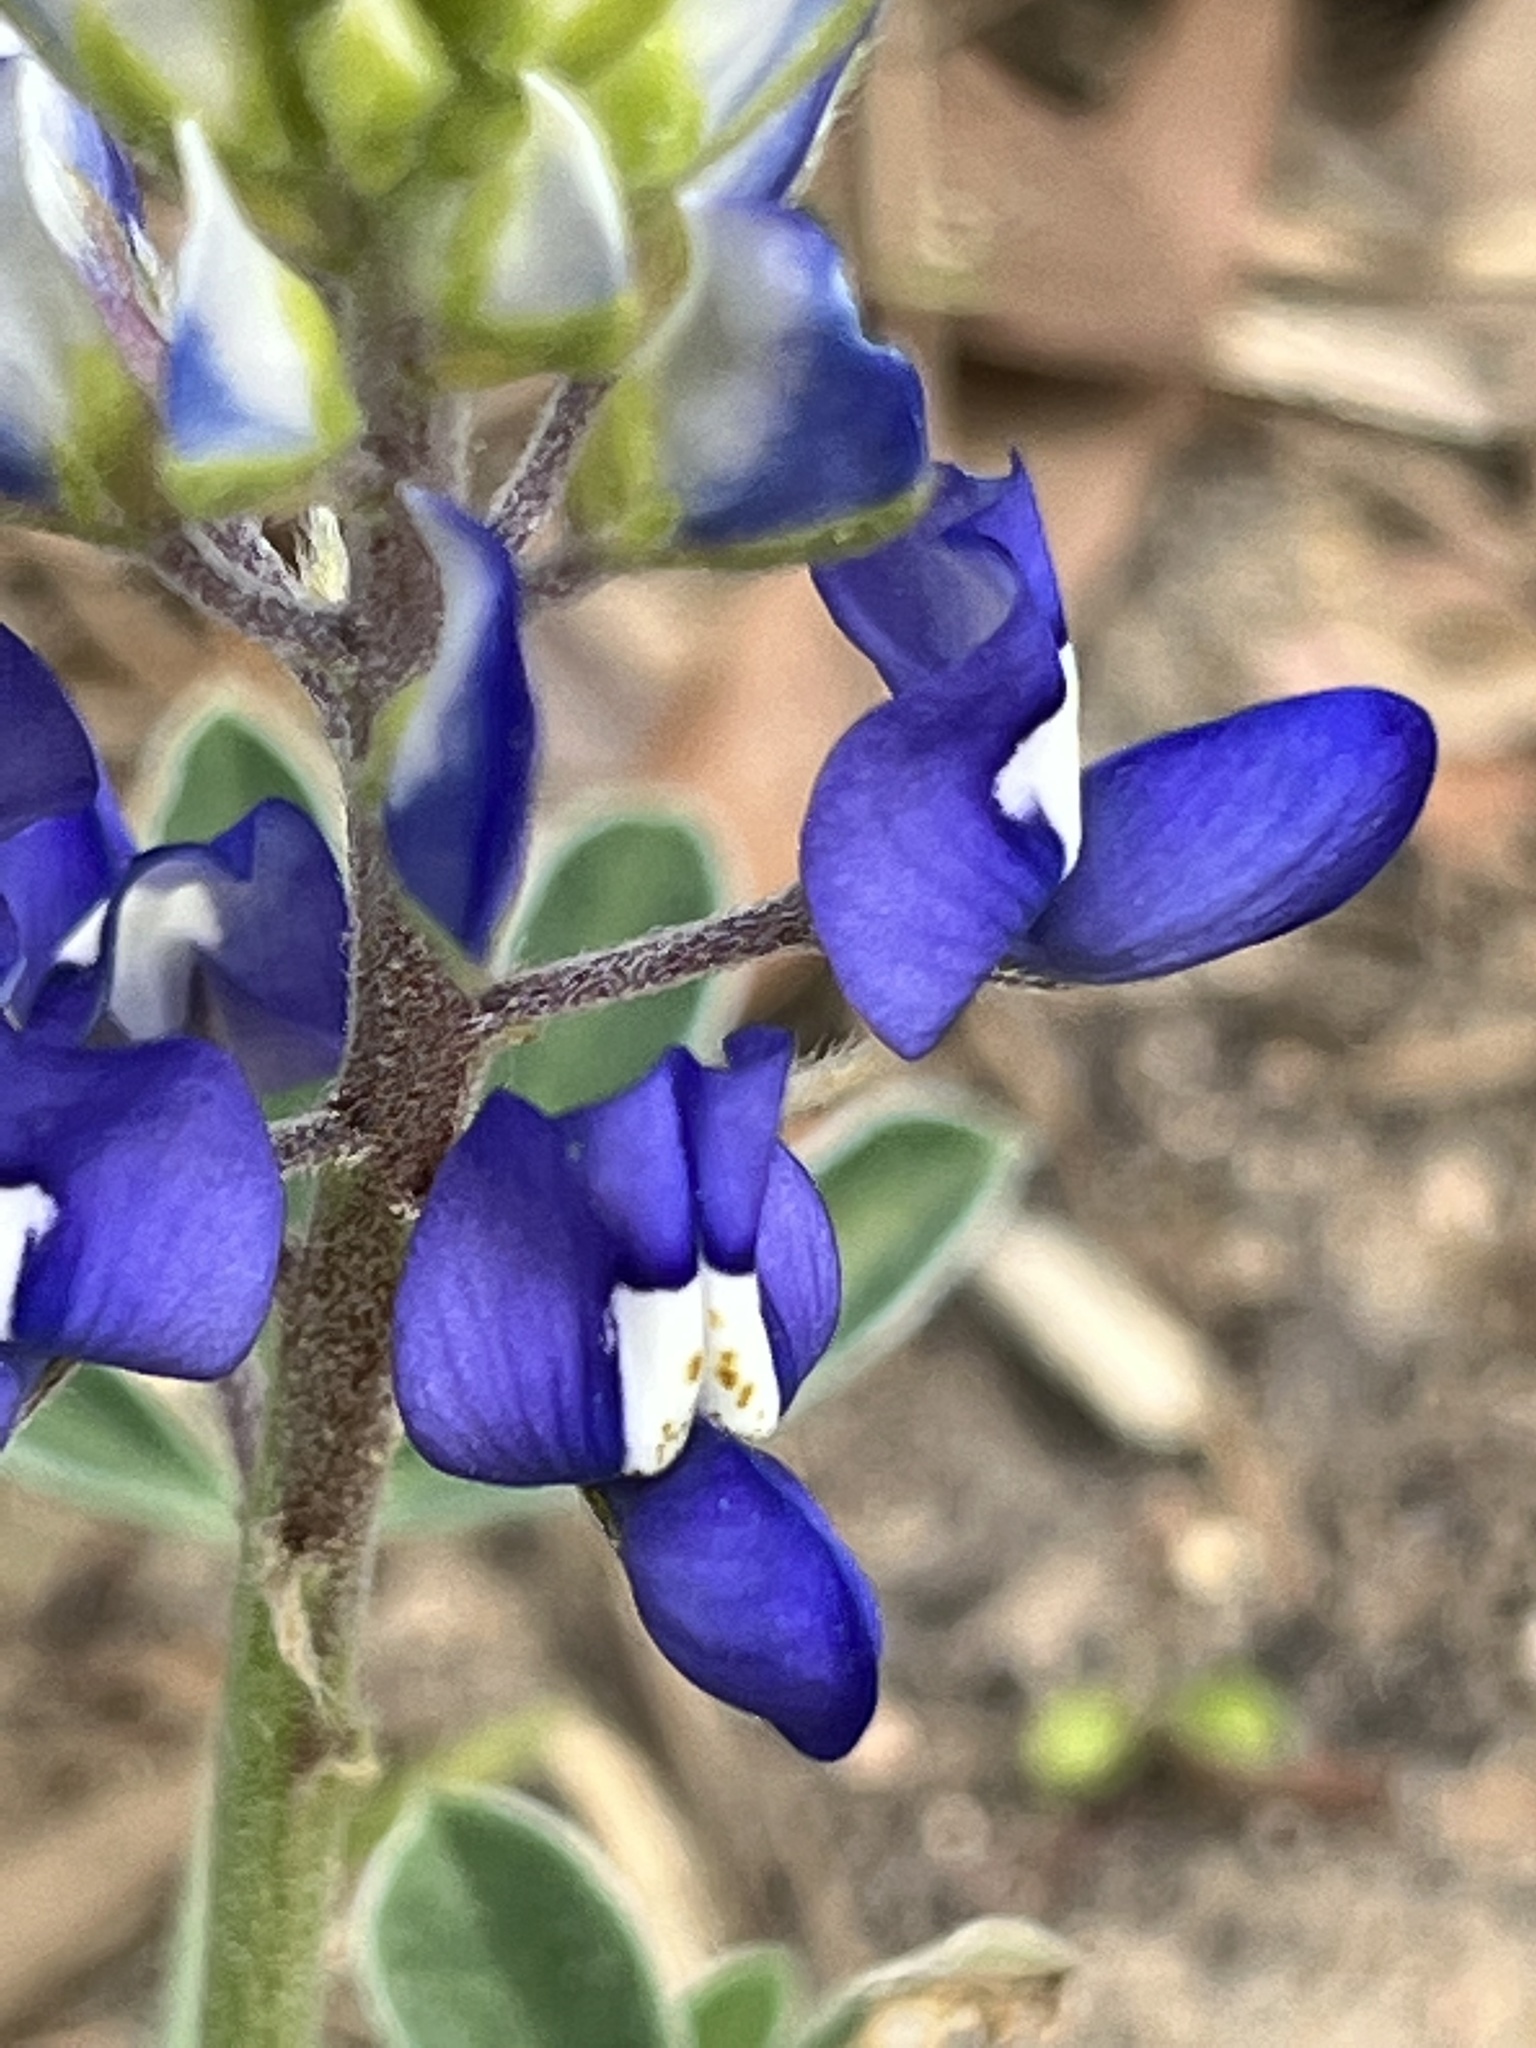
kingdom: Plantae
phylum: Tracheophyta
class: Magnoliopsida
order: Fabales
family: Fabaceae
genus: Lupinus
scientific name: Lupinus texensis
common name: Texas bluebonnet
